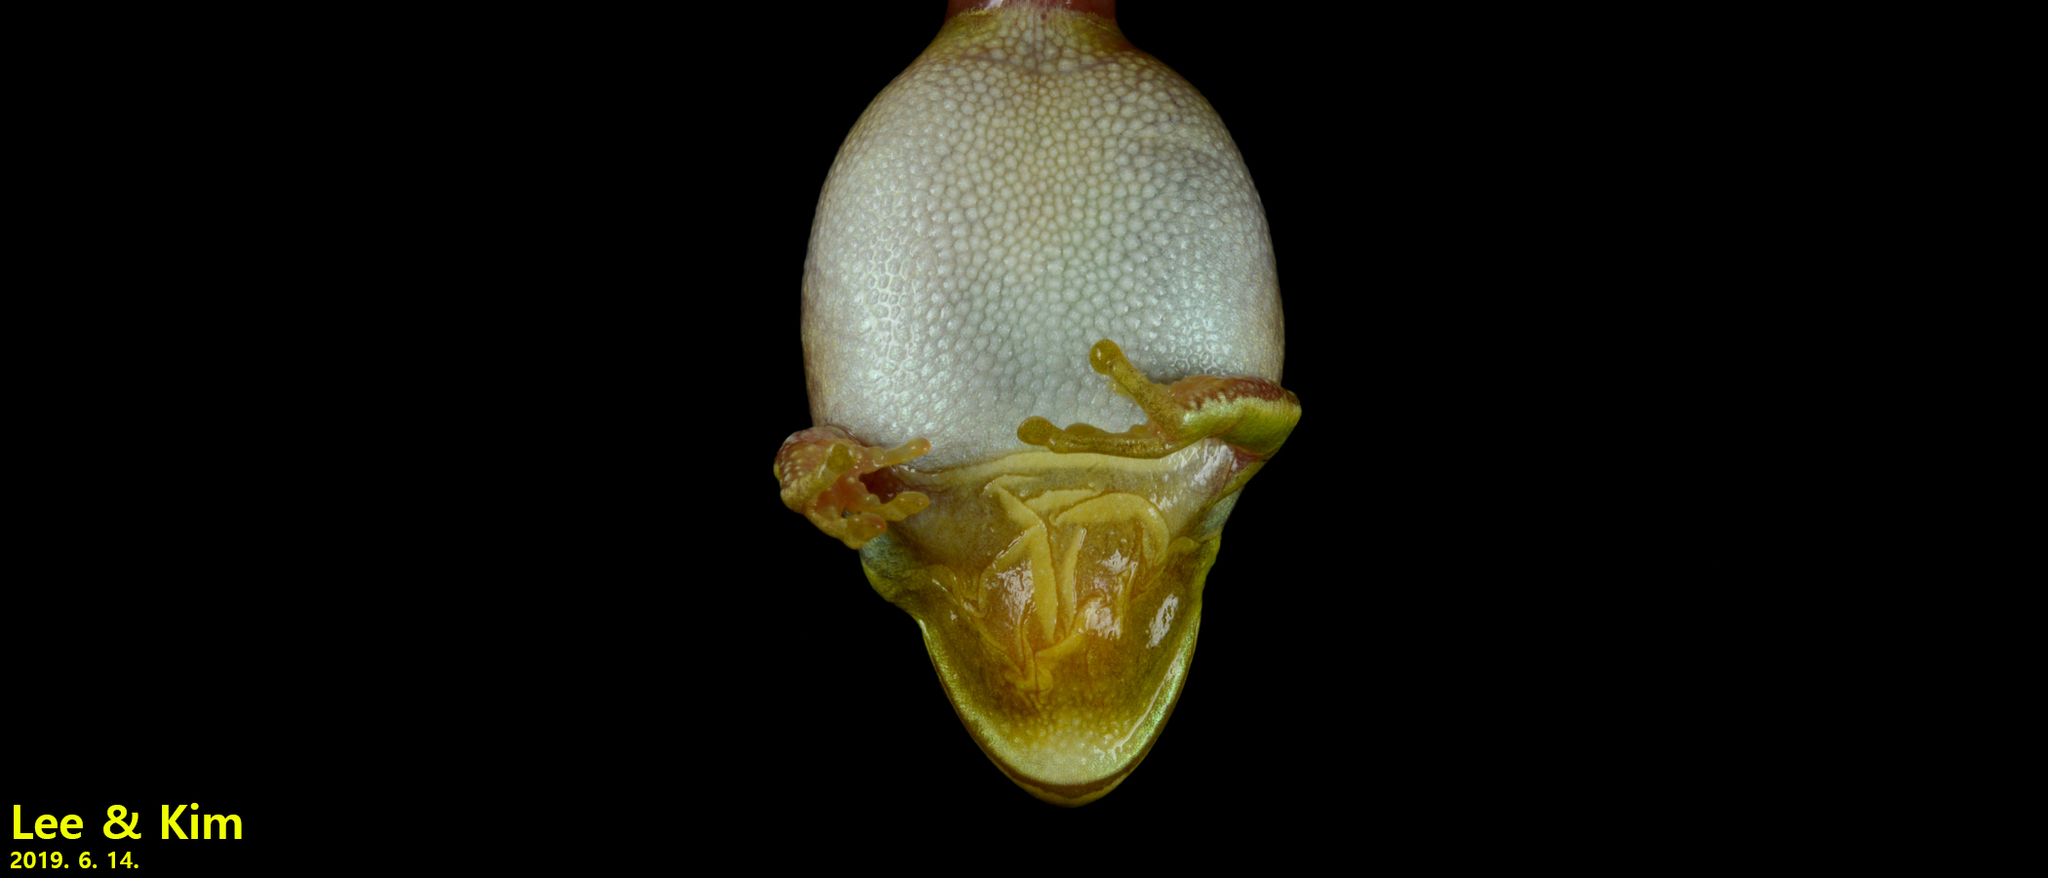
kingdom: Animalia
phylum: Chordata
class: Amphibia
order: Anura
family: Hylidae
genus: Dryophytes
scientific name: Dryophytes immaculatus
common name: North china treefrog
